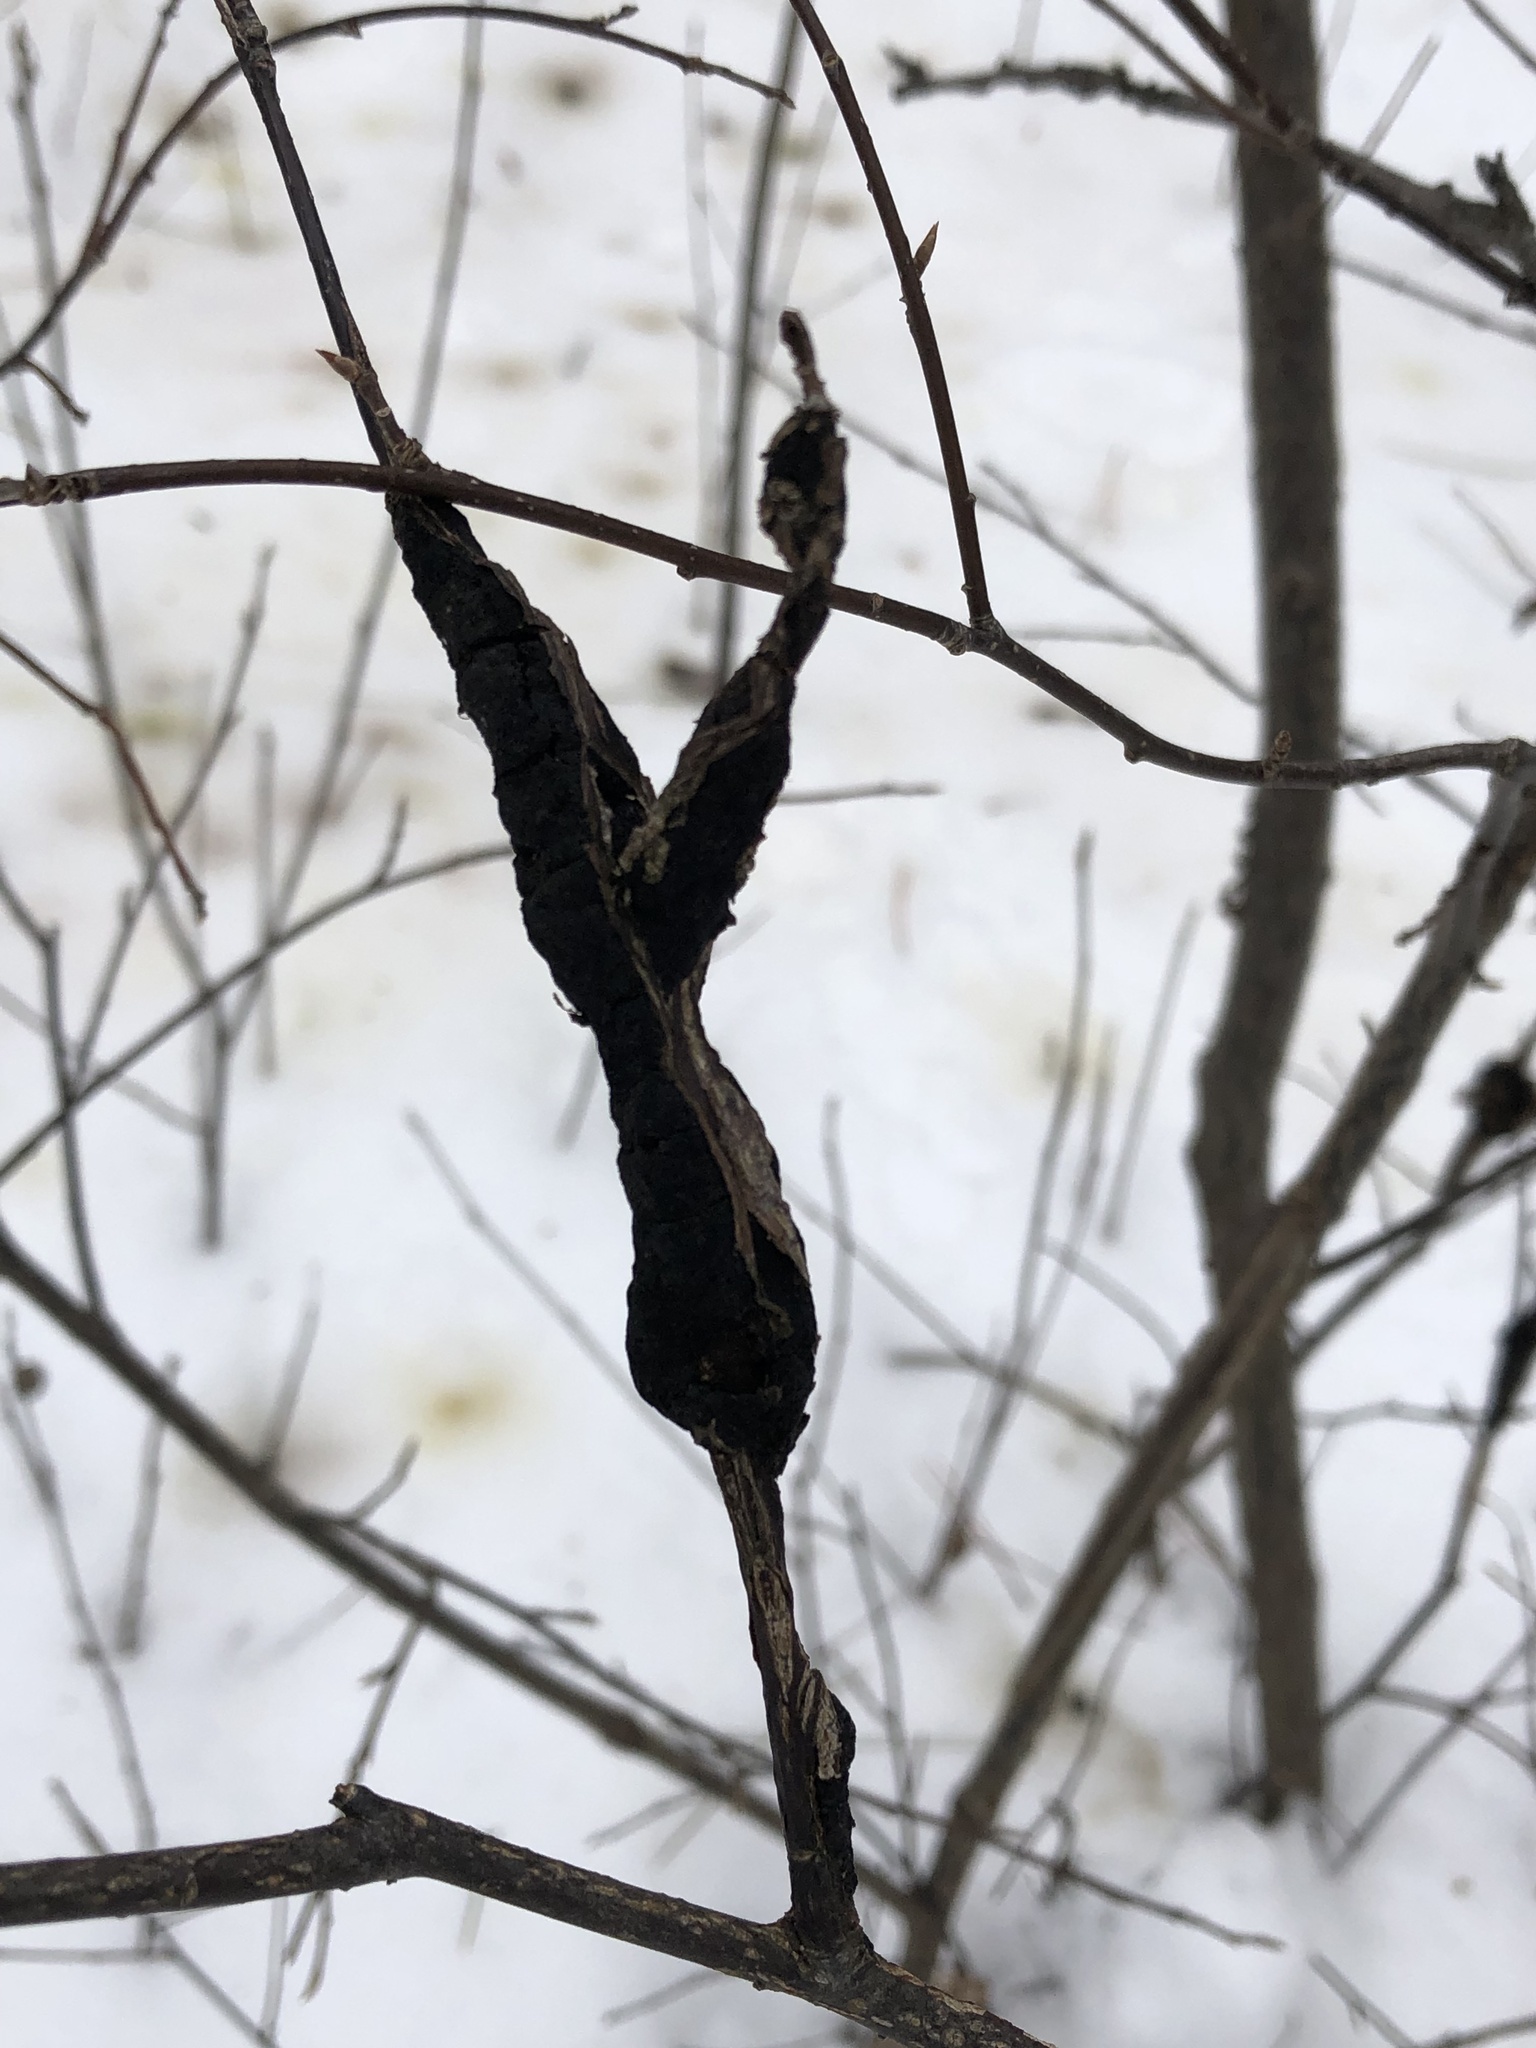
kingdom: Fungi
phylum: Ascomycota
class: Dothideomycetes
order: Venturiales
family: Venturiaceae
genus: Apiosporina
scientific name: Apiosporina morbosa
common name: Black knot
